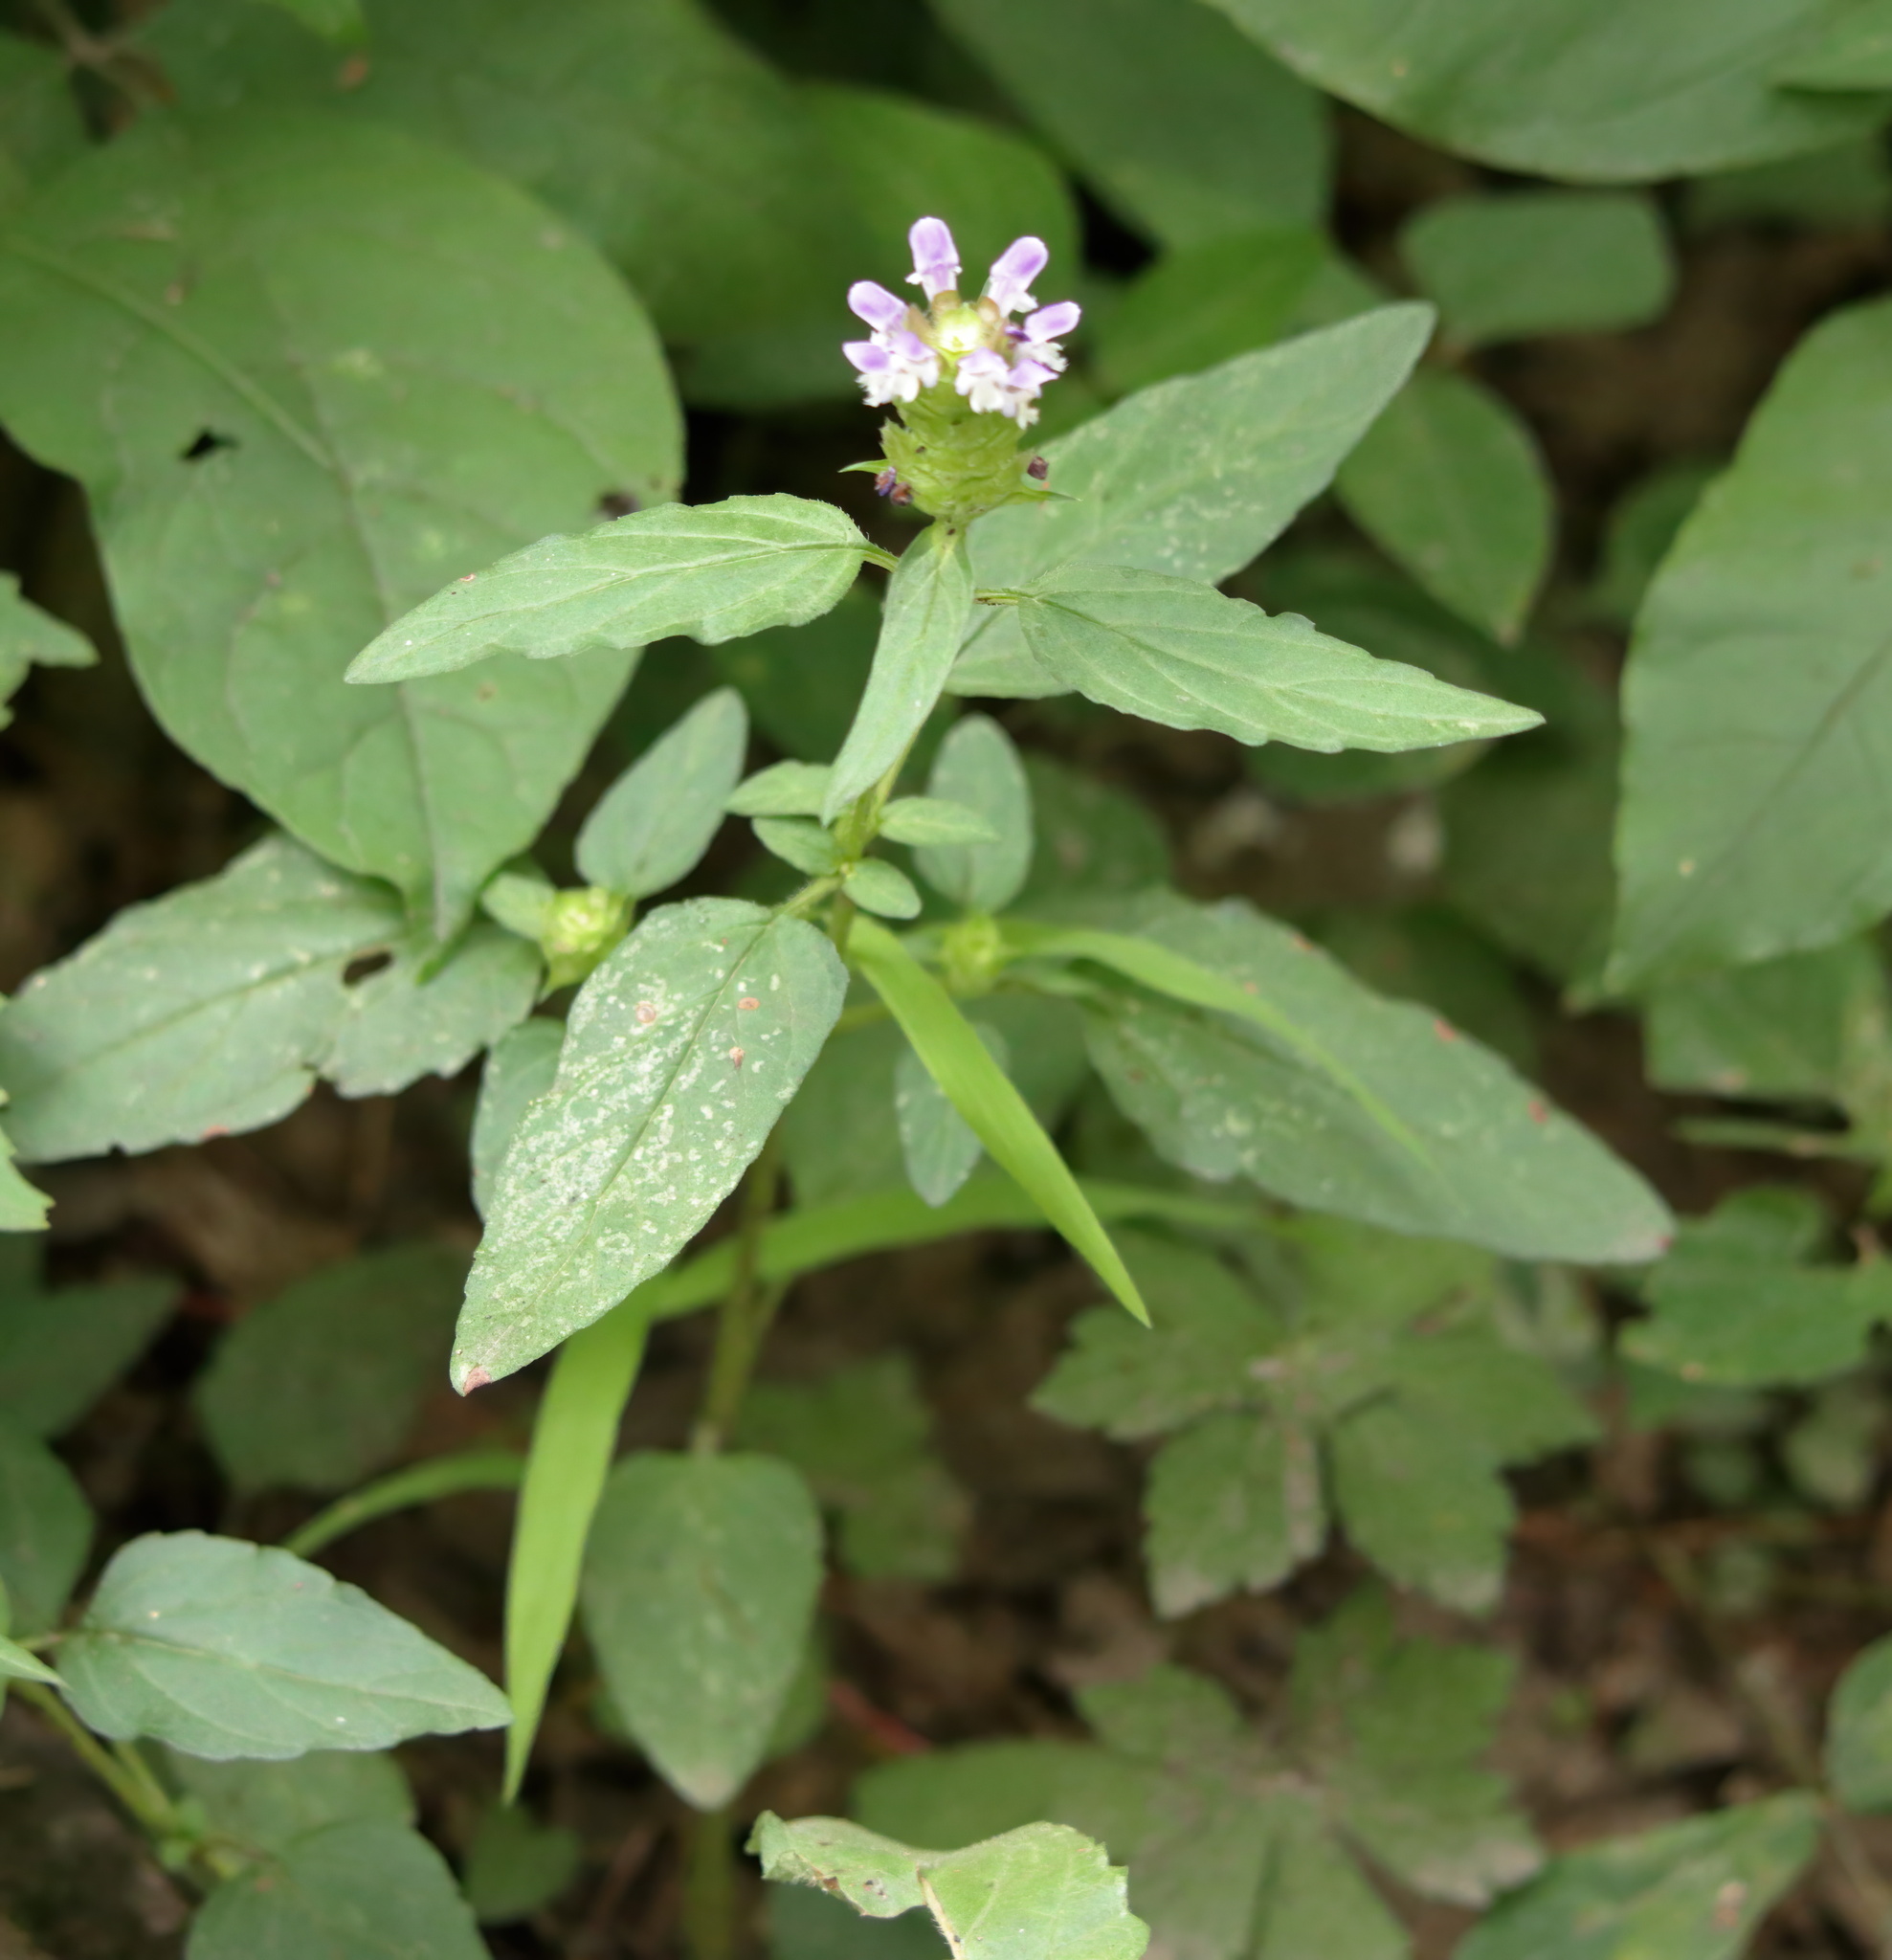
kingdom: Plantae
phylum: Tracheophyta
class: Magnoliopsida
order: Lamiales
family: Lamiaceae
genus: Prunella
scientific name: Prunella vulgaris
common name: Heal-all
